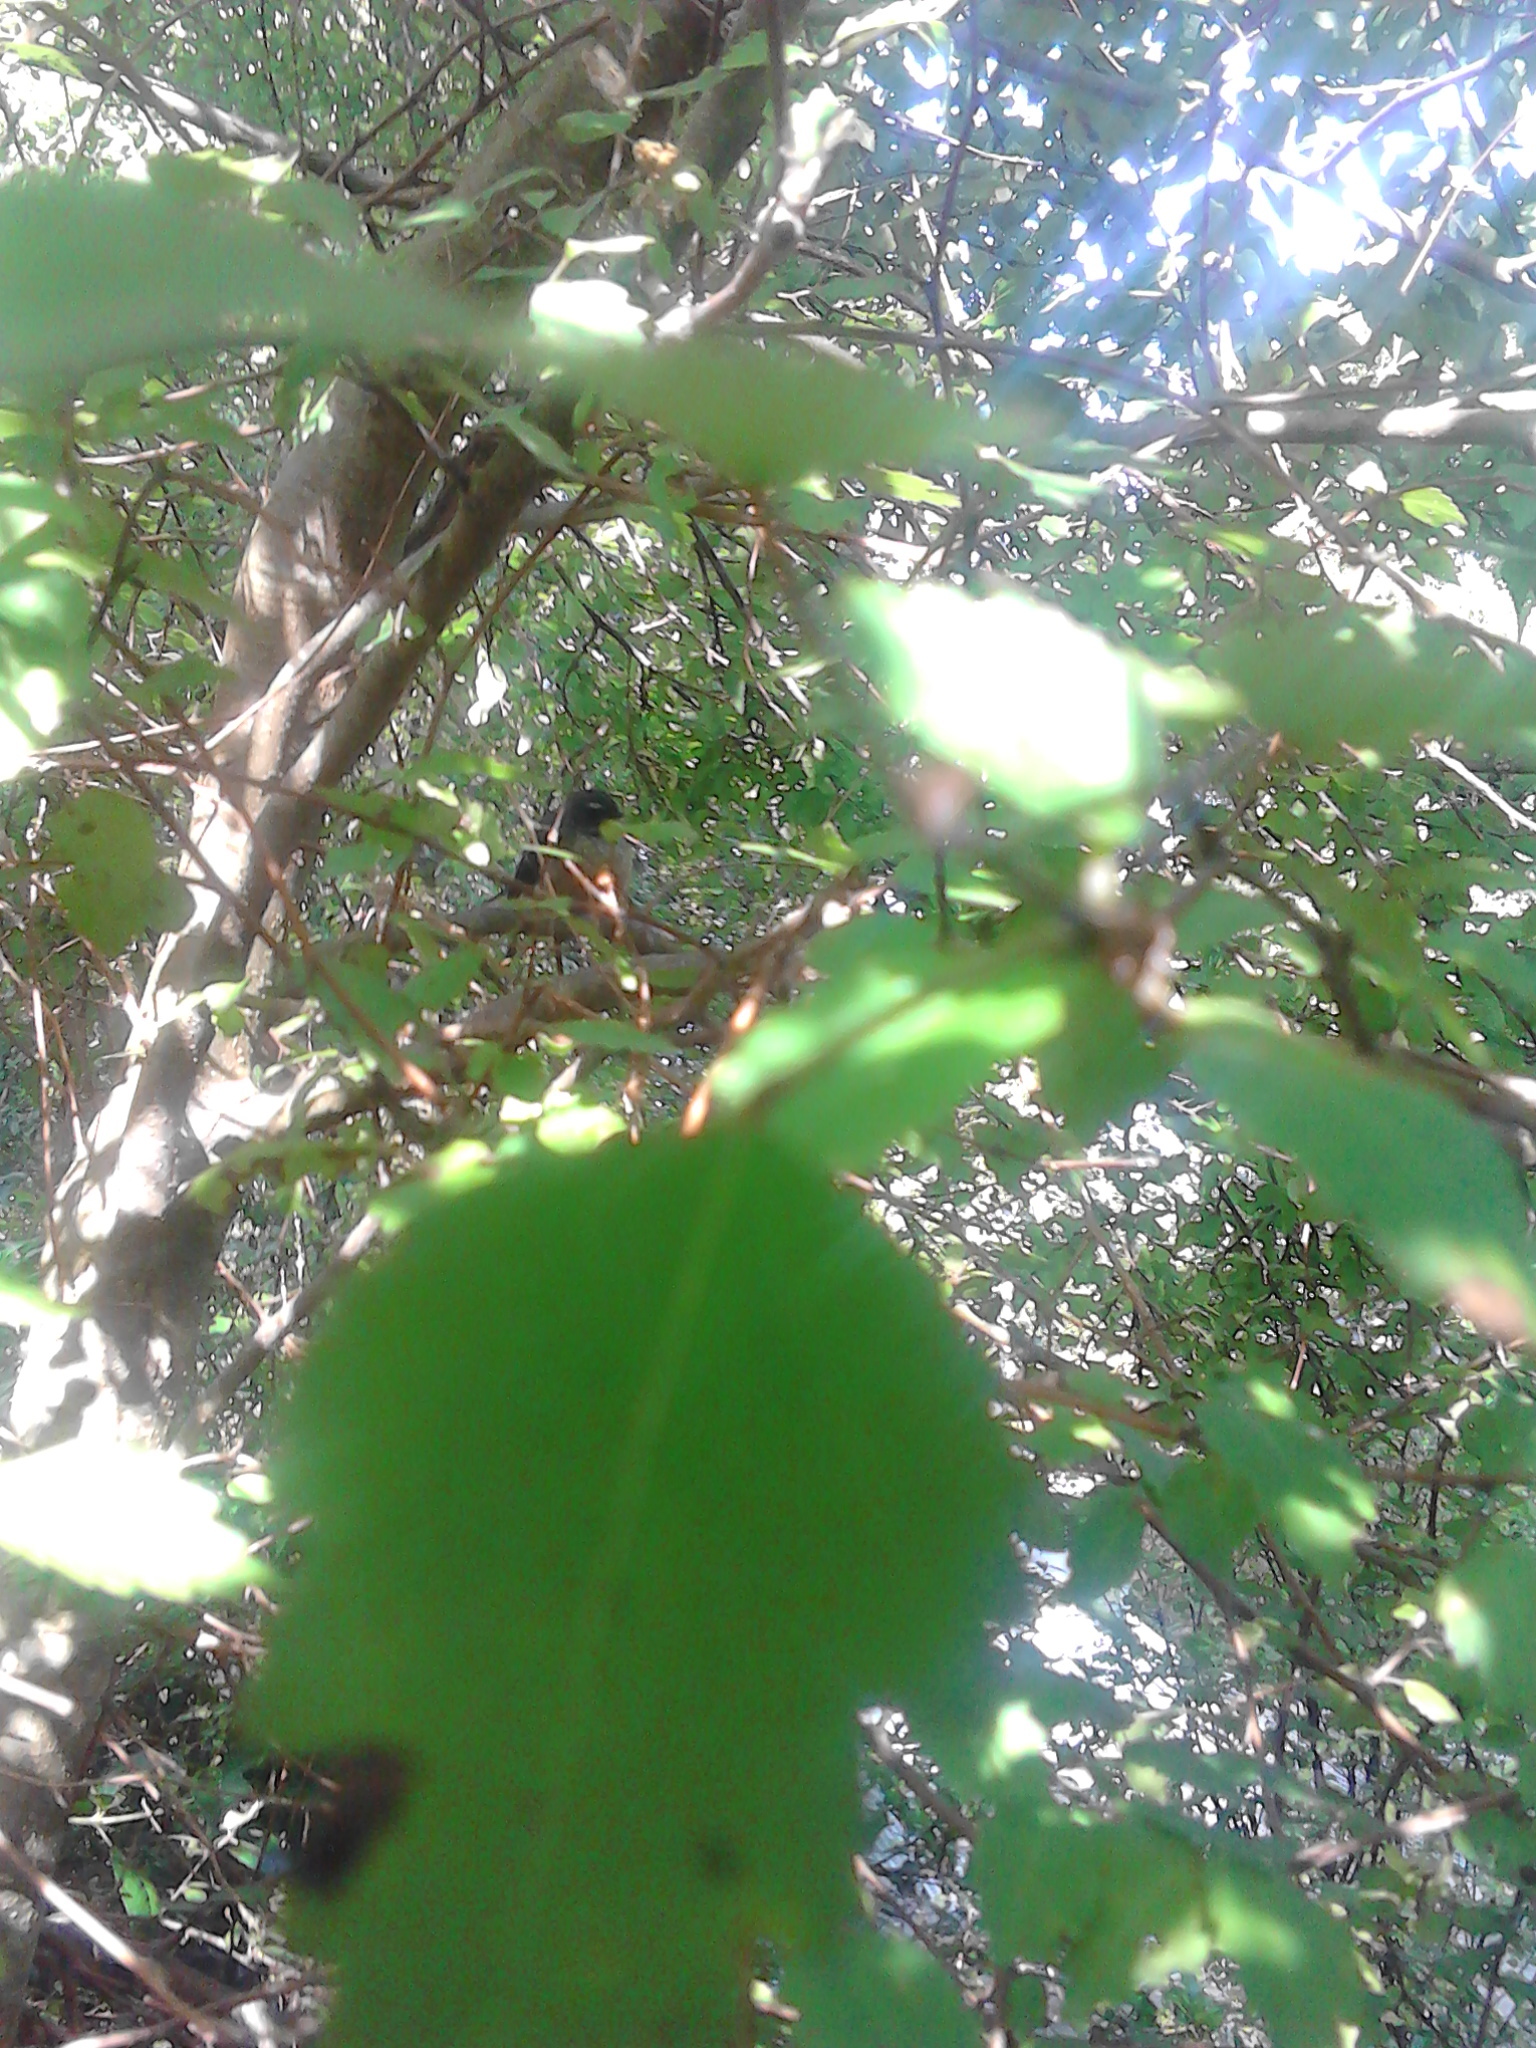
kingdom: Animalia
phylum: Chordata
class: Aves
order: Passeriformes
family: Rhipiduridae
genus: Rhipidura
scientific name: Rhipidura fuliginosa
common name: New zealand fantail
